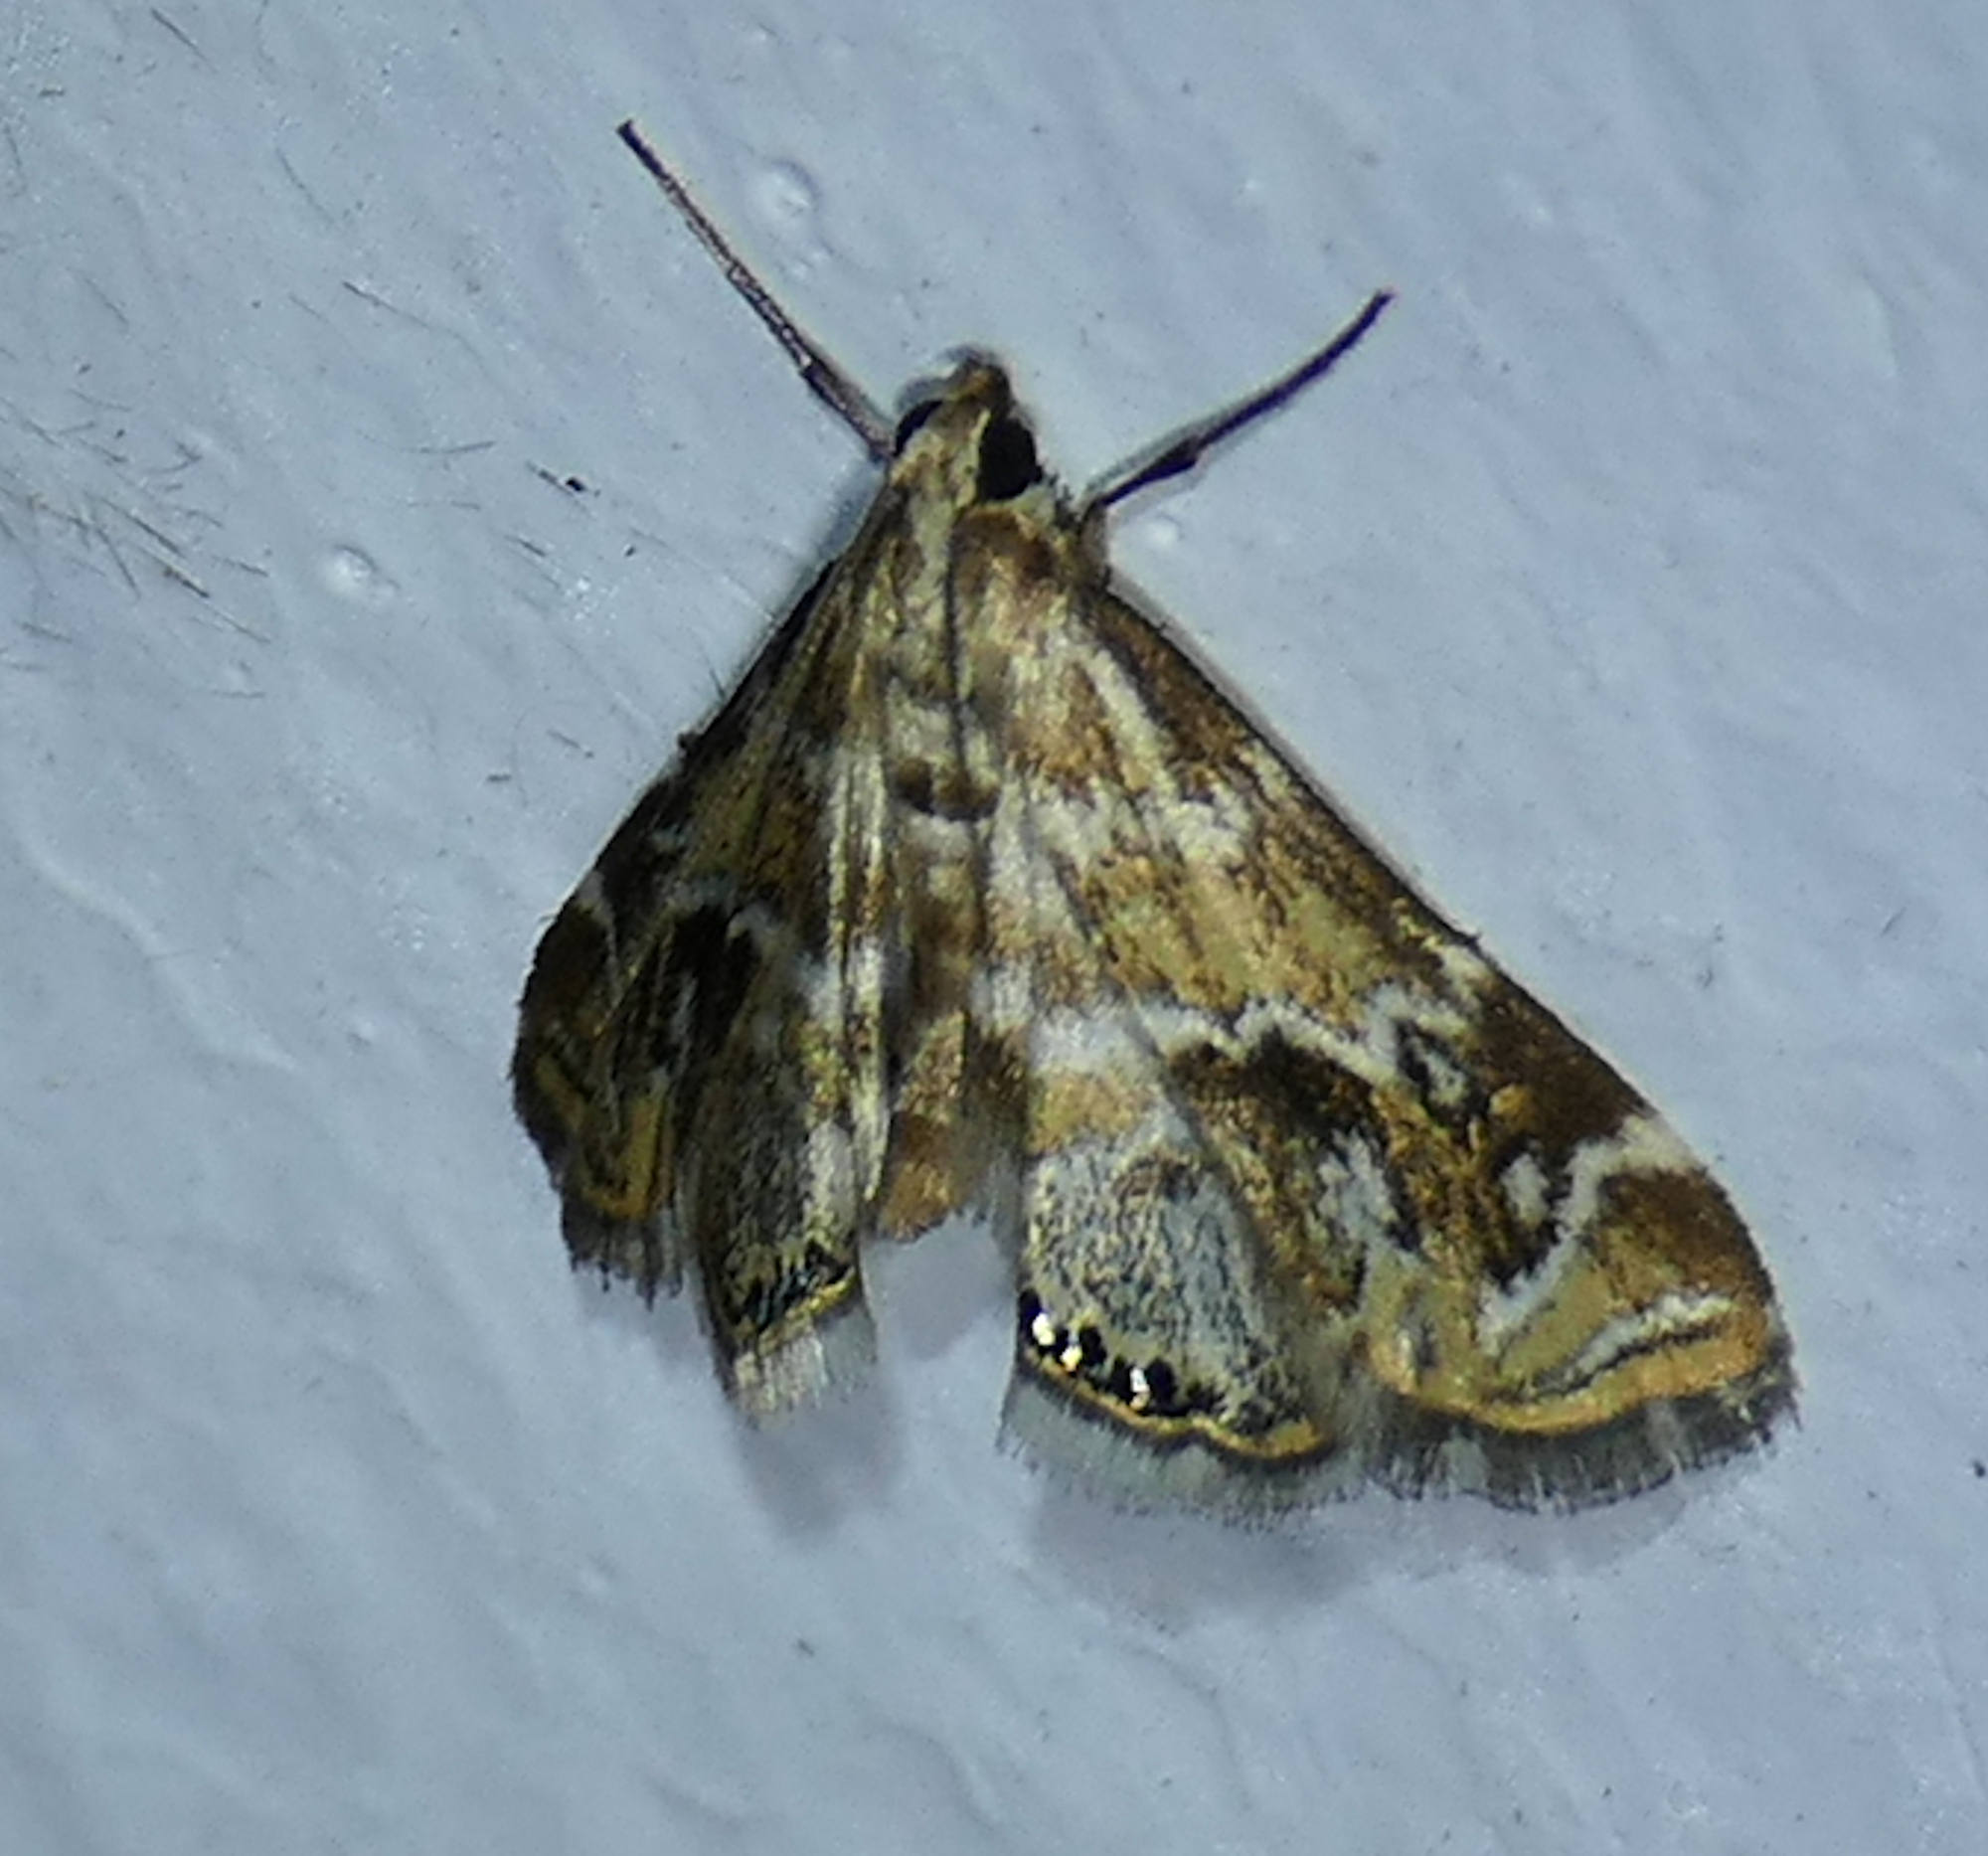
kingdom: Animalia
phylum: Arthropoda
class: Insecta
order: Lepidoptera
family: Crambidae
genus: Petrophila
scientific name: Petrophila avernalis
